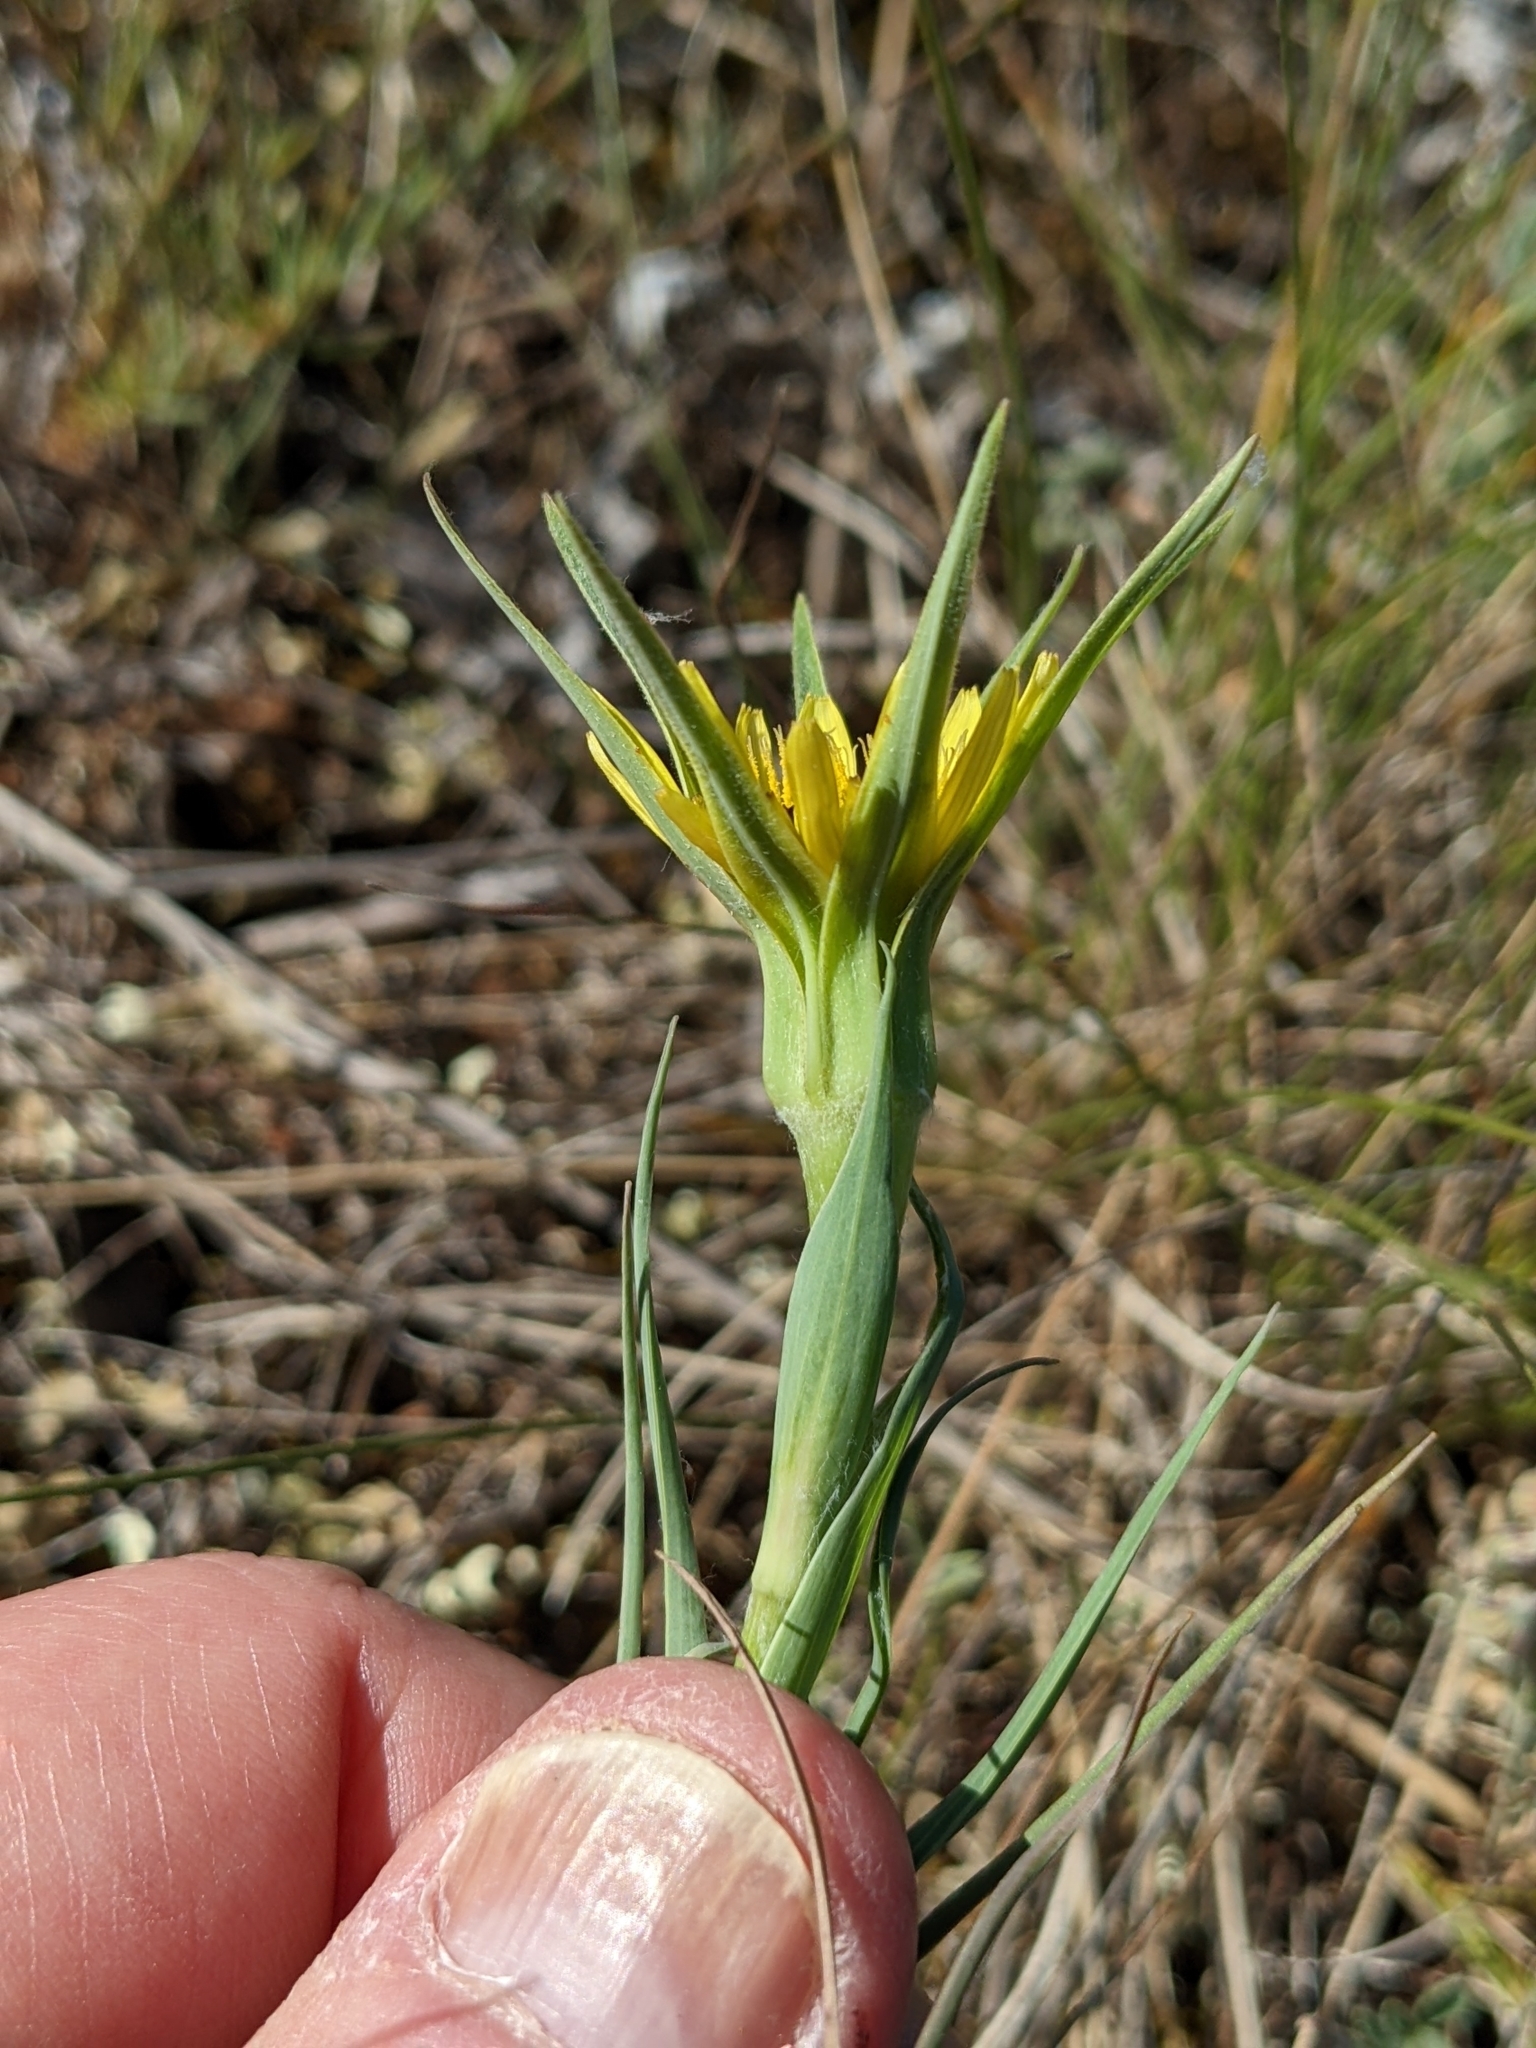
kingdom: Plantae
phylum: Tracheophyta
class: Magnoliopsida
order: Asterales
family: Asteraceae
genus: Tragopogon
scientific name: Tragopogon dubius
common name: Yellow salsify
